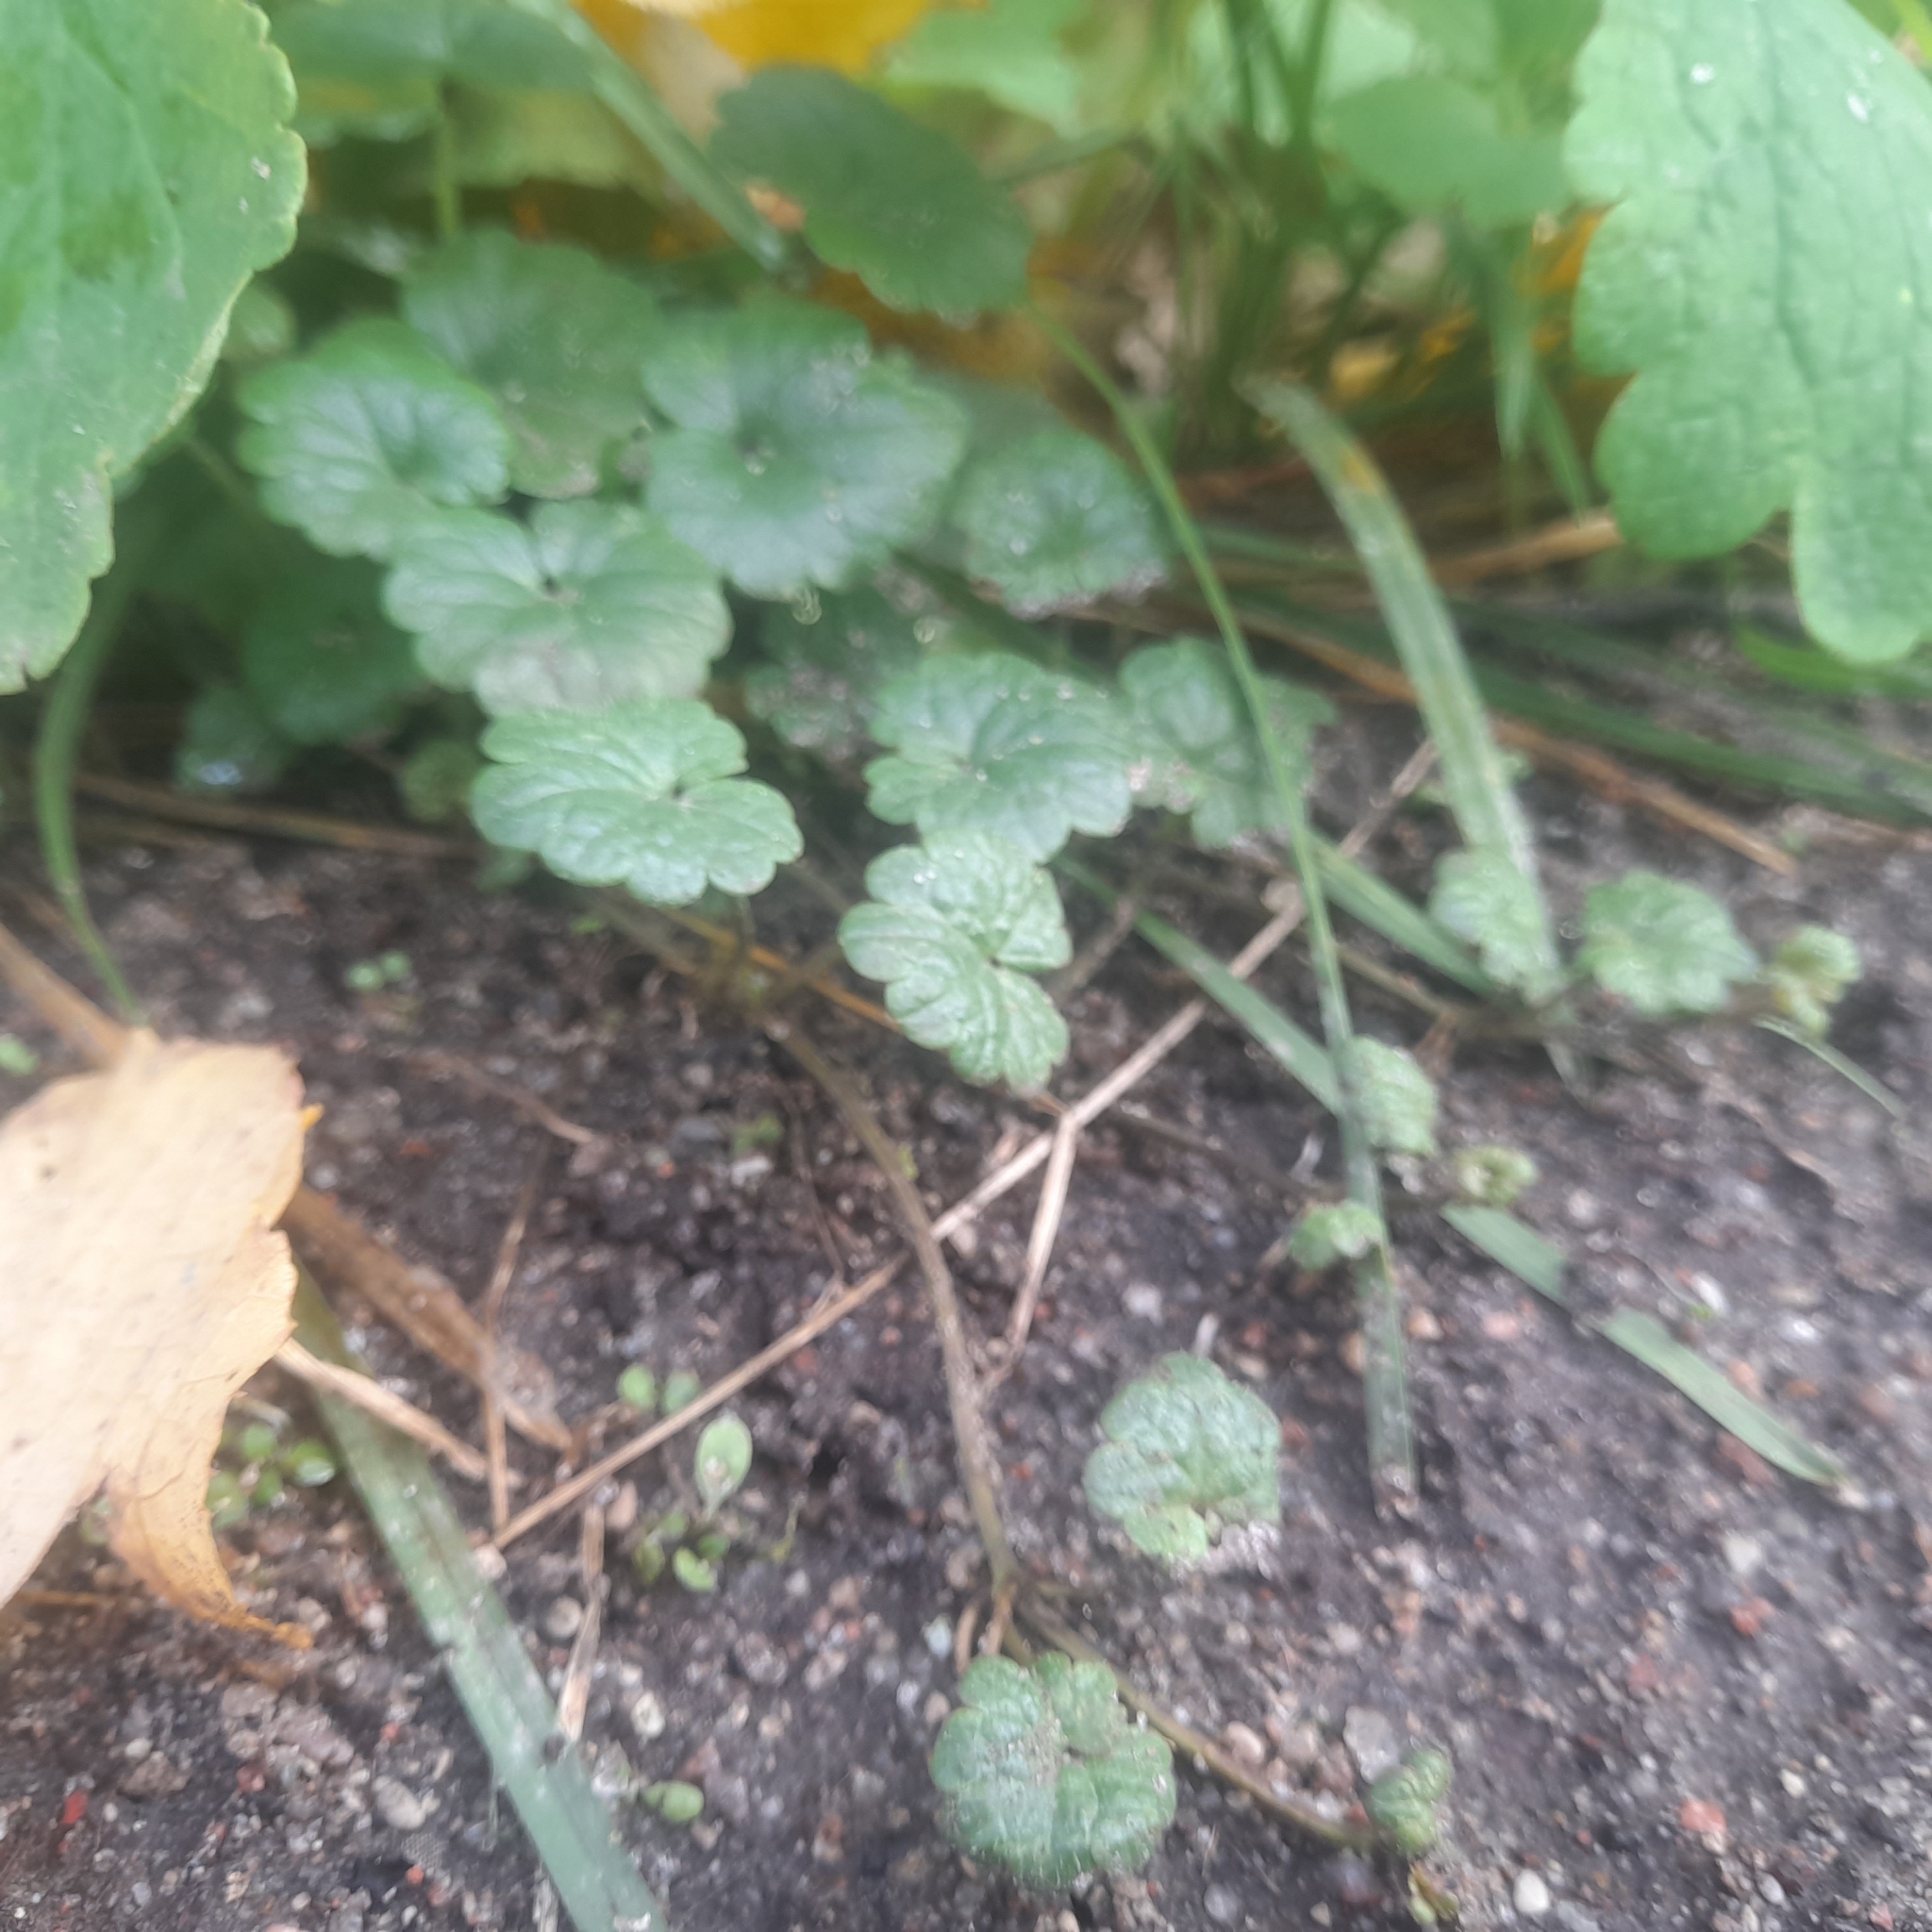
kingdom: Plantae
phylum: Tracheophyta
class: Magnoliopsida
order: Lamiales
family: Lamiaceae
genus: Glechoma
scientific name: Glechoma hederacea
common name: Ground ivy
